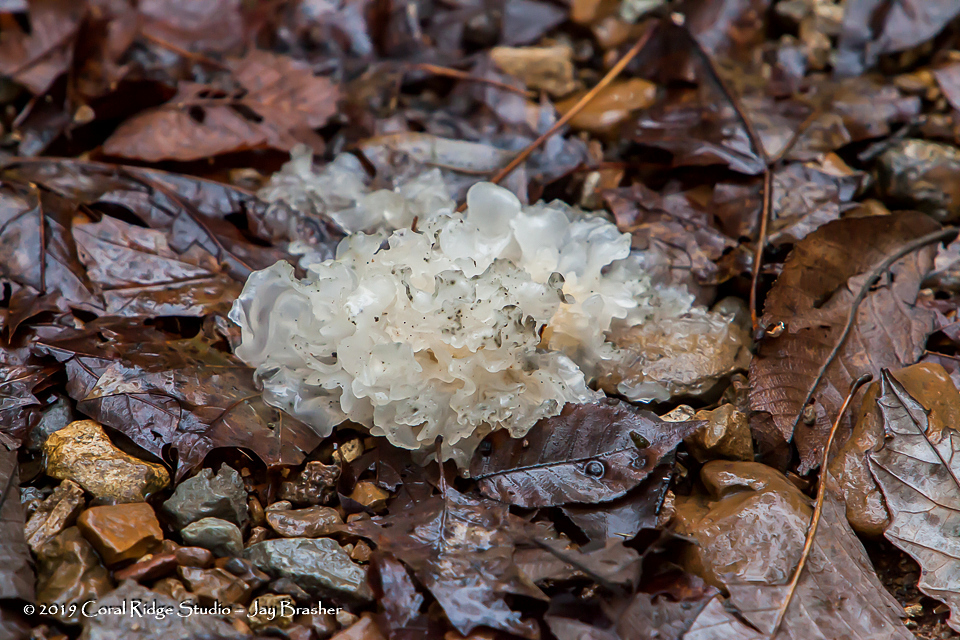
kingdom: Fungi
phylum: Basidiomycota
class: Tremellomycetes
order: Tremellales
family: Tremellaceae
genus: Tremella
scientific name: Tremella fuciformis
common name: Snow fungus
